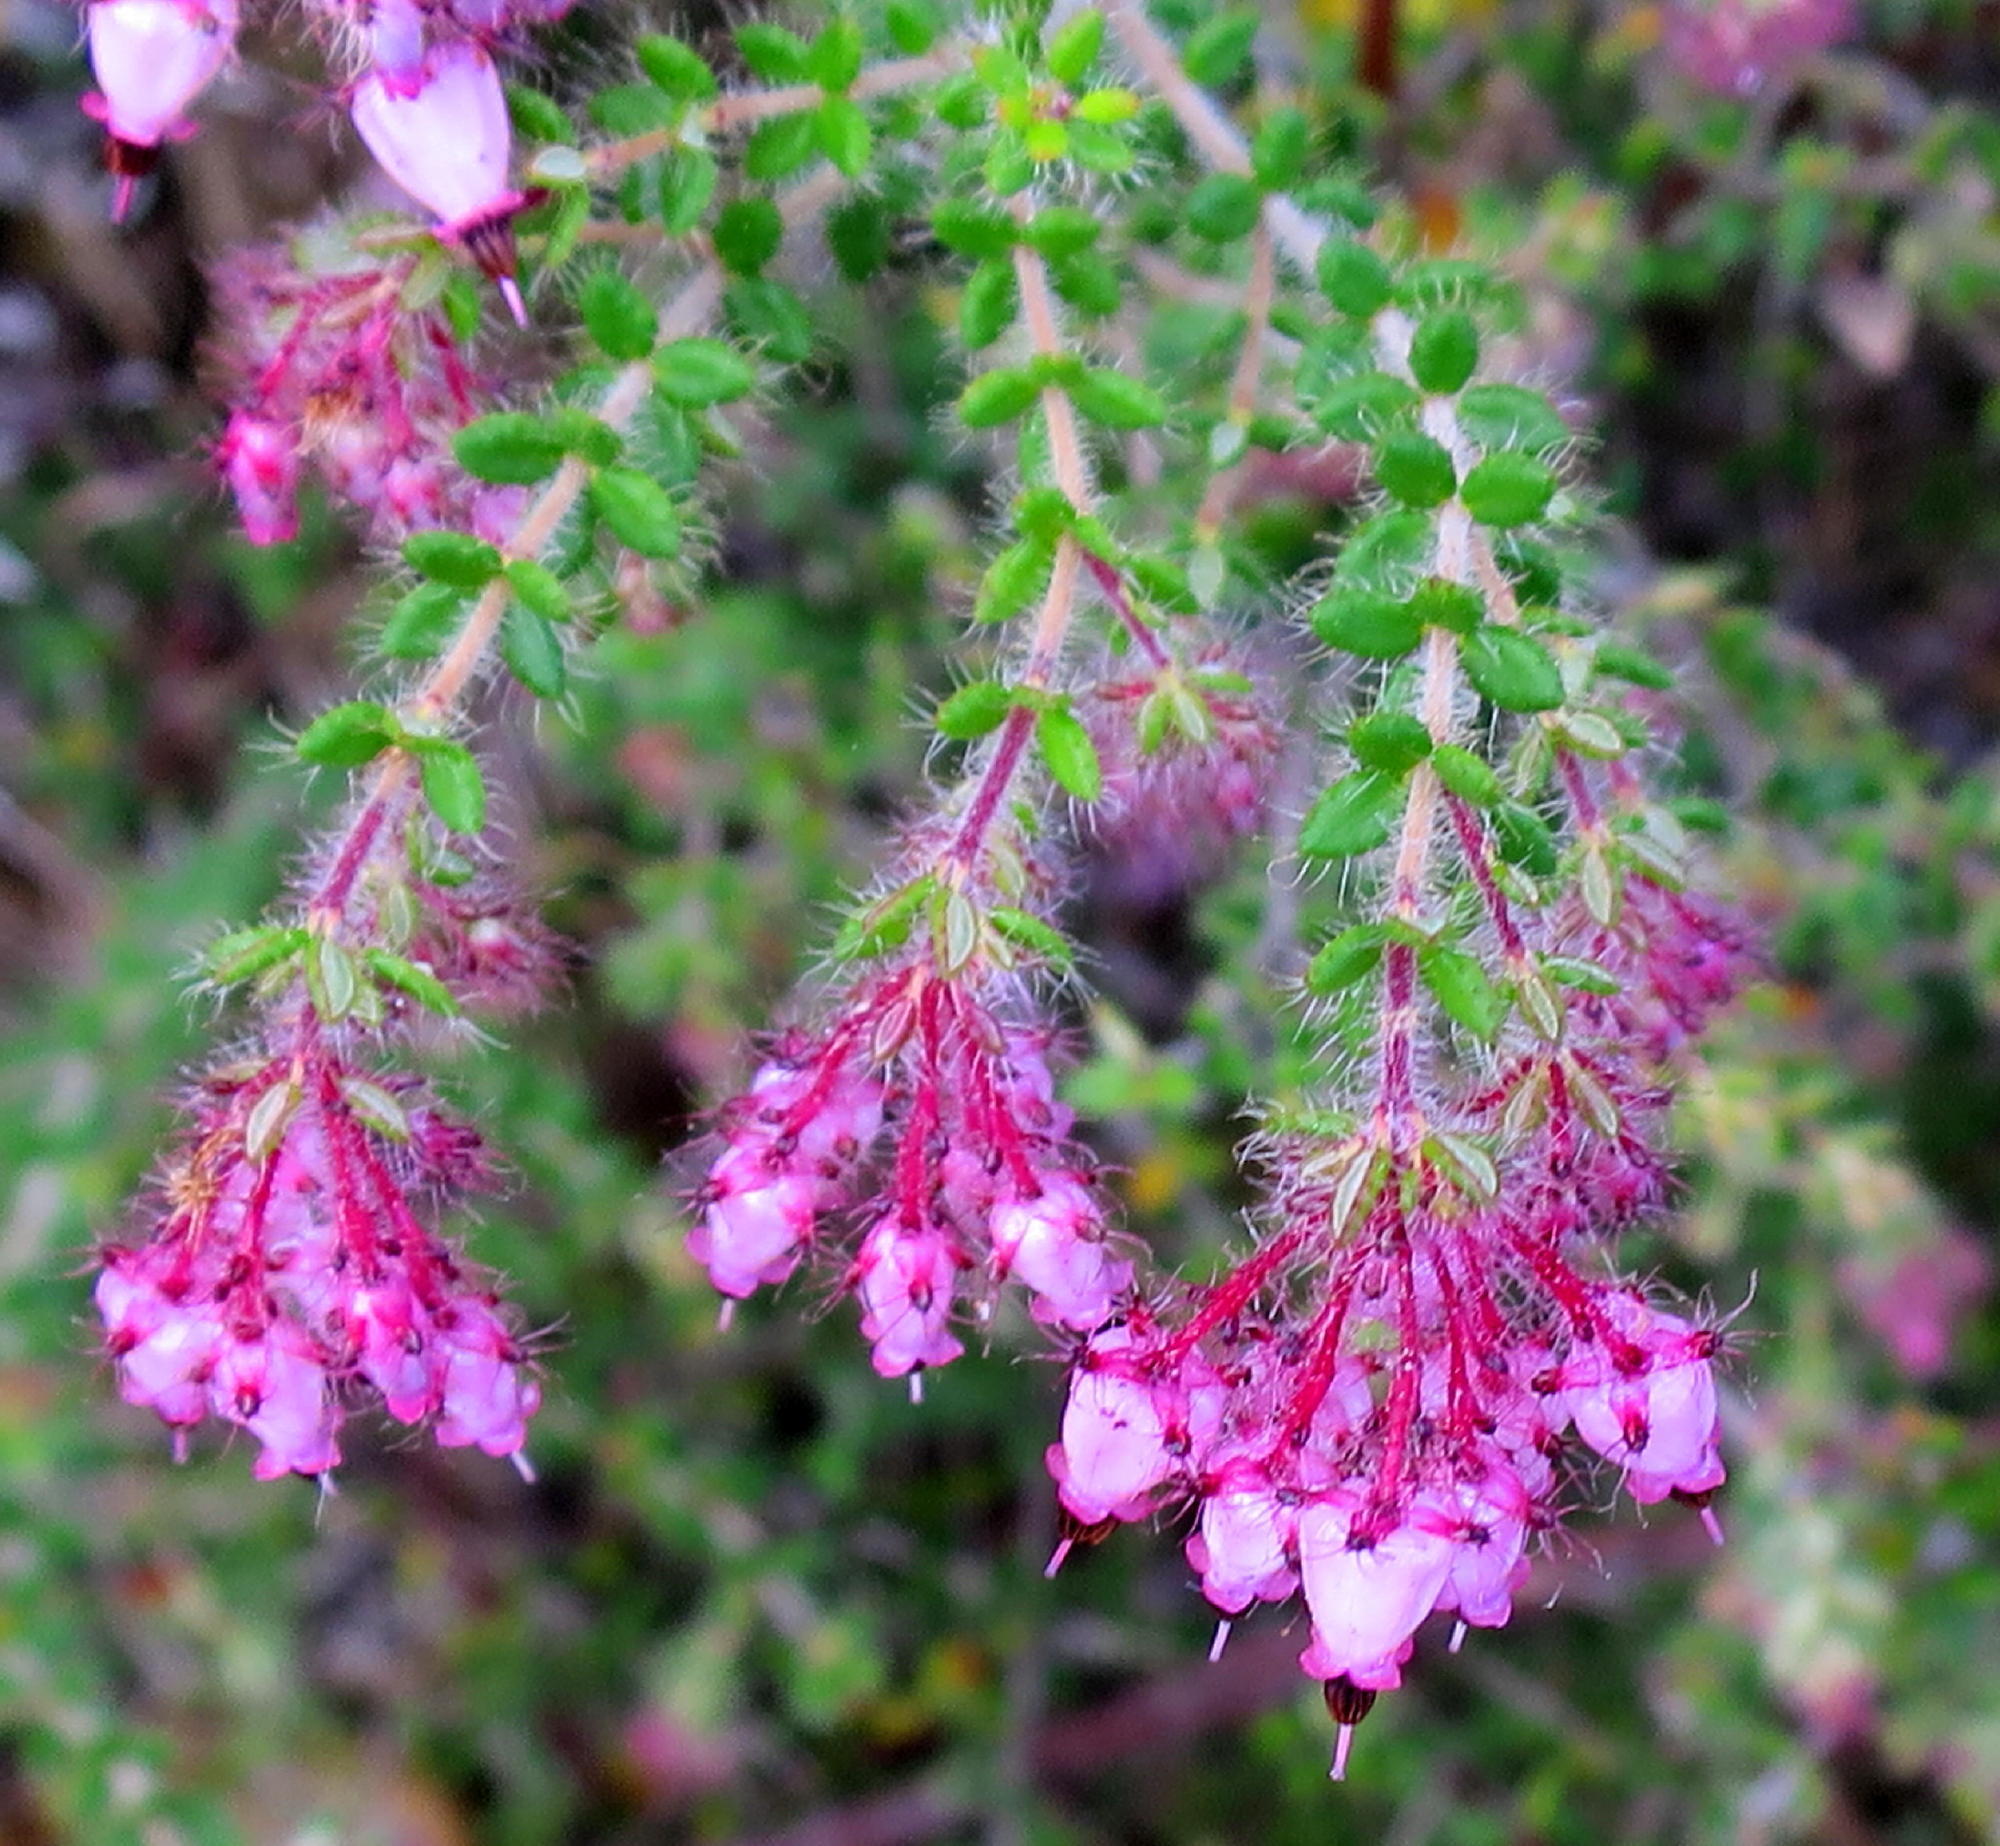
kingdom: Plantae
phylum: Tracheophyta
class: Magnoliopsida
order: Ericales
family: Ericaceae
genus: Erica
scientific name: Erica aneimena
